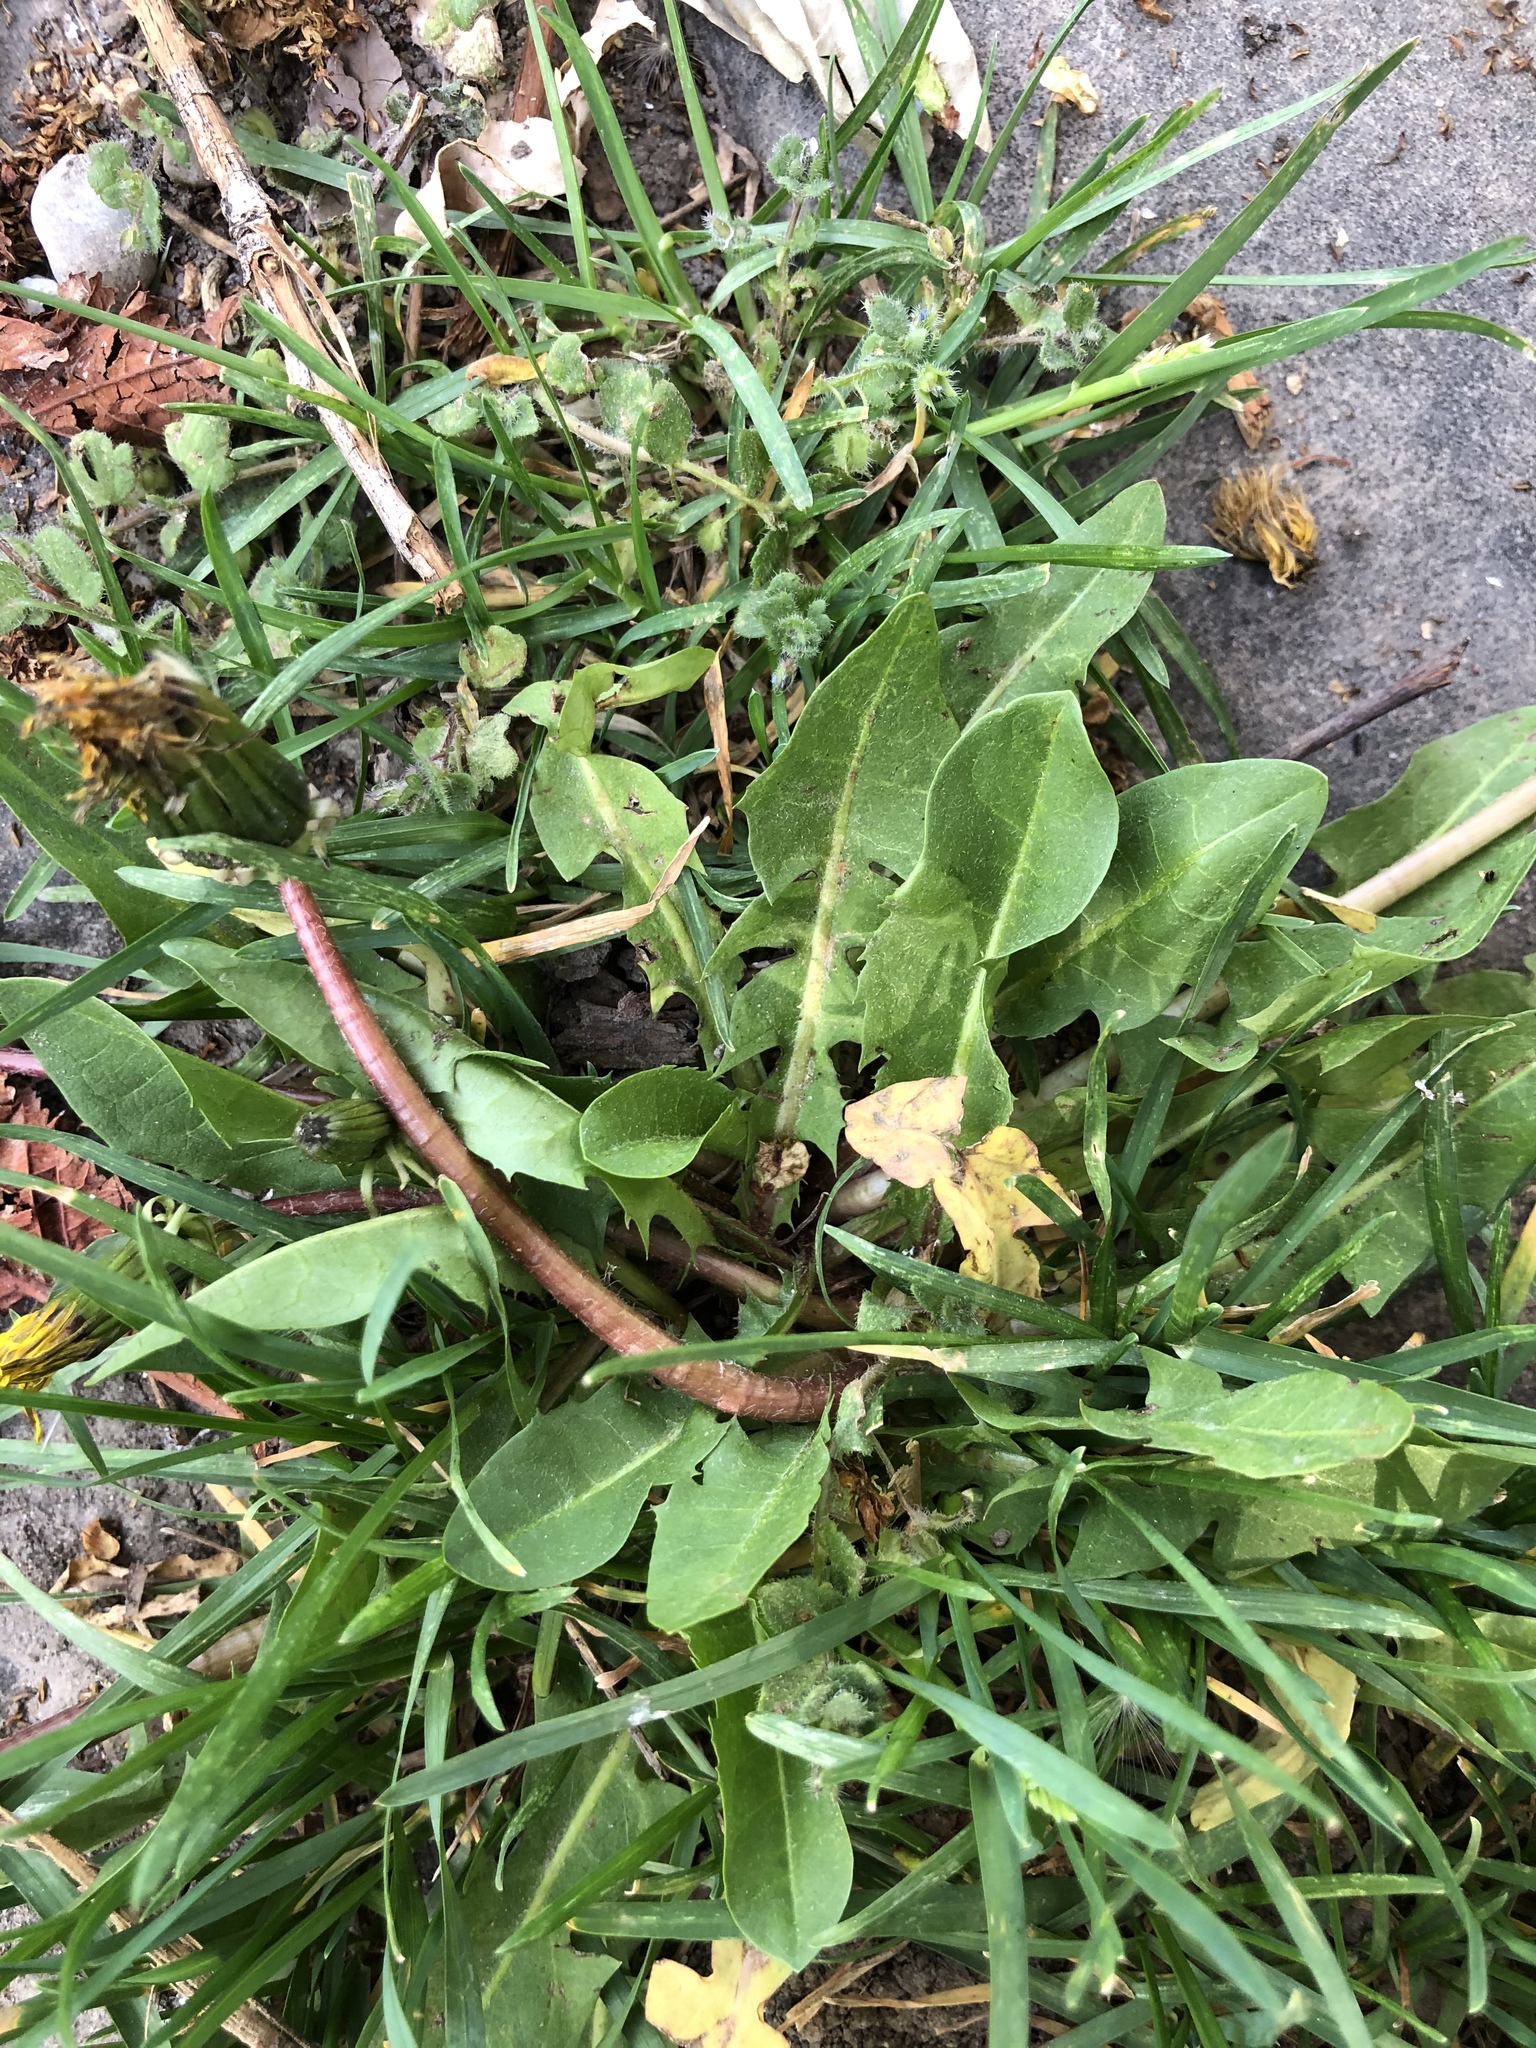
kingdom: Plantae
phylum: Tracheophyta
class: Magnoliopsida
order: Asterales
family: Asteraceae
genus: Taraxacum
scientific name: Taraxacum officinale
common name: Common dandelion
